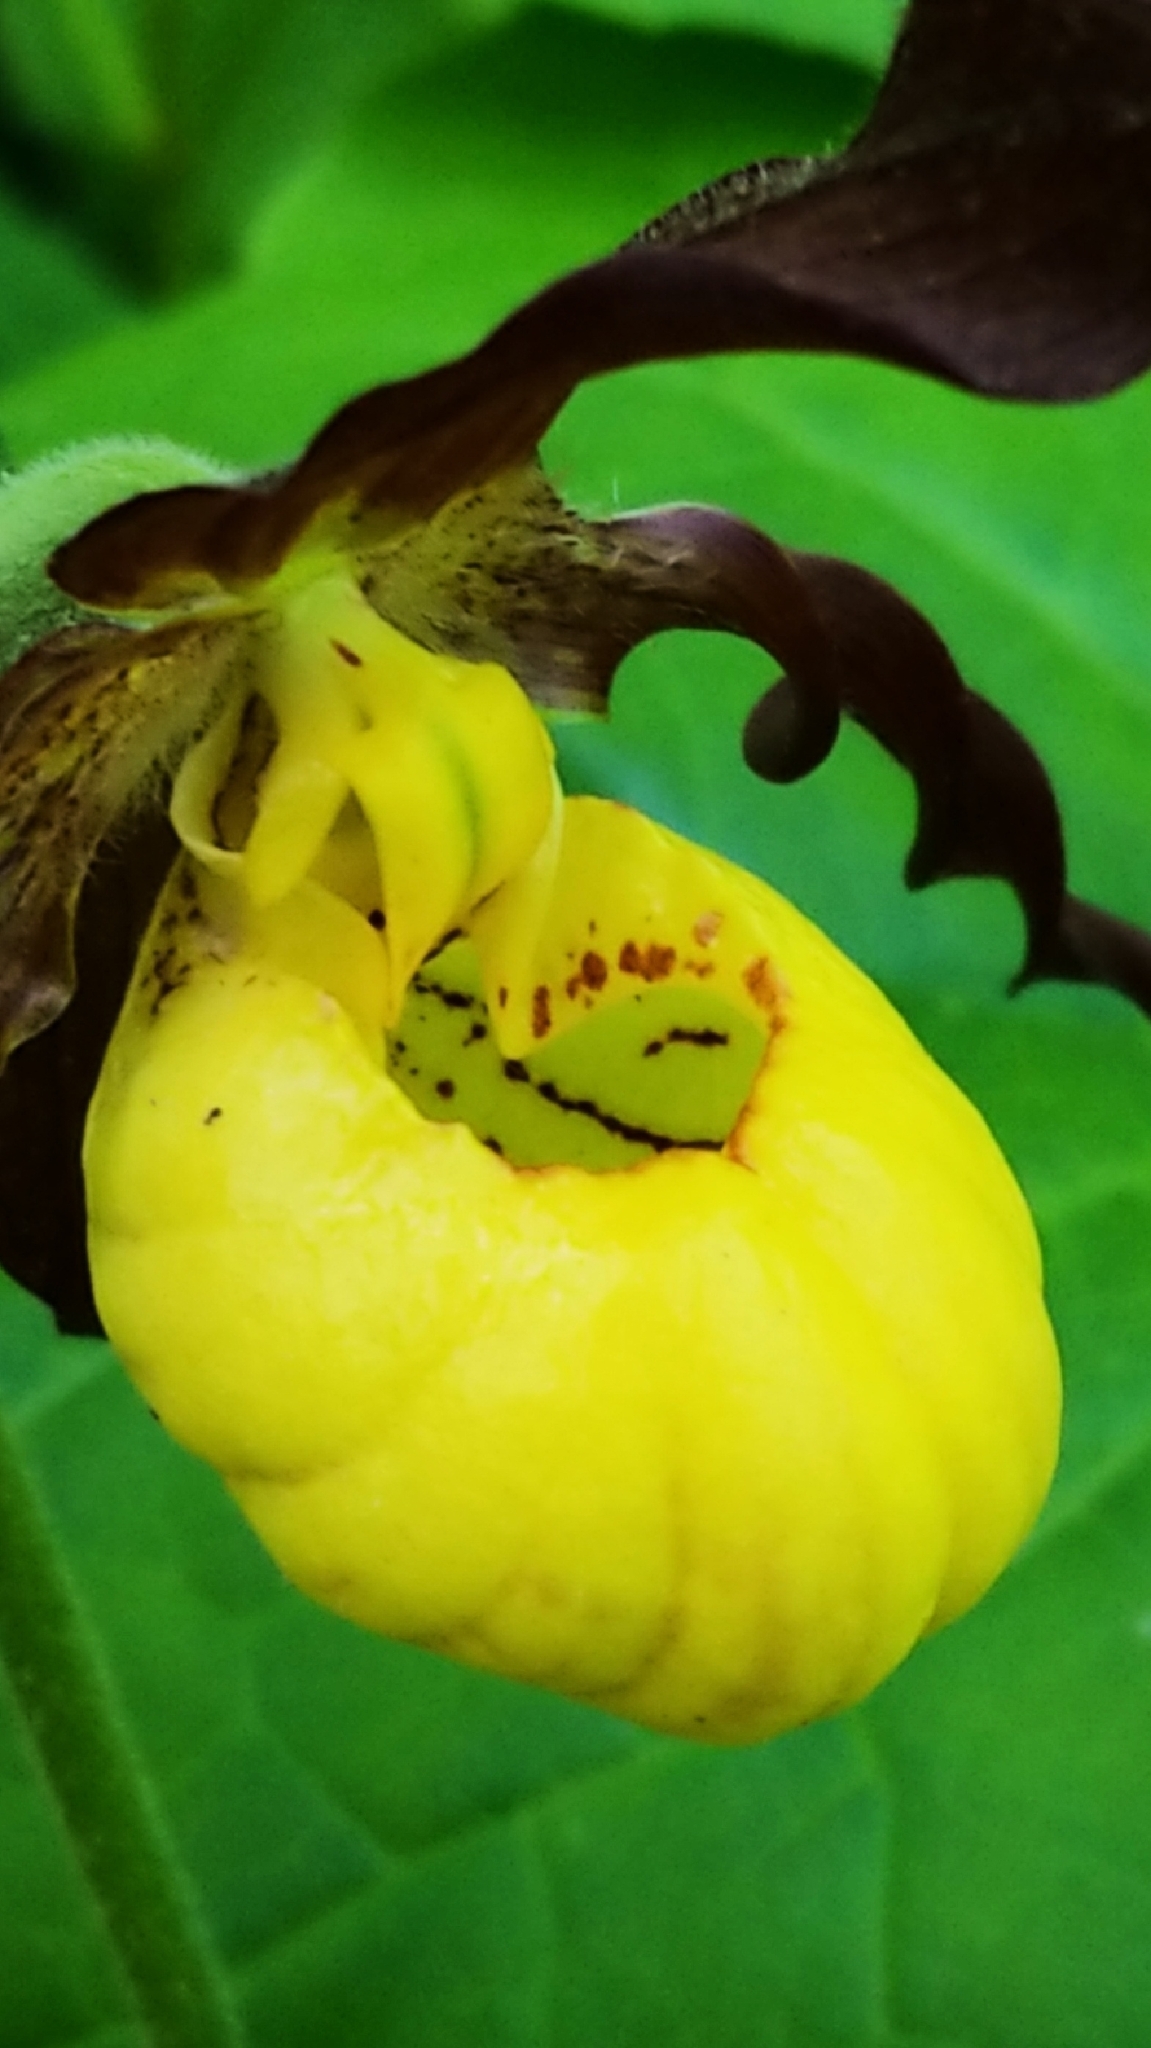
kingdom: Plantae
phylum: Tracheophyta
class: Liliopsida
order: Asparagales
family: Orchidaceae
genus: Cypripedium
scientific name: Cypripedium parviflorum
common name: American yellow lady's-slipper
